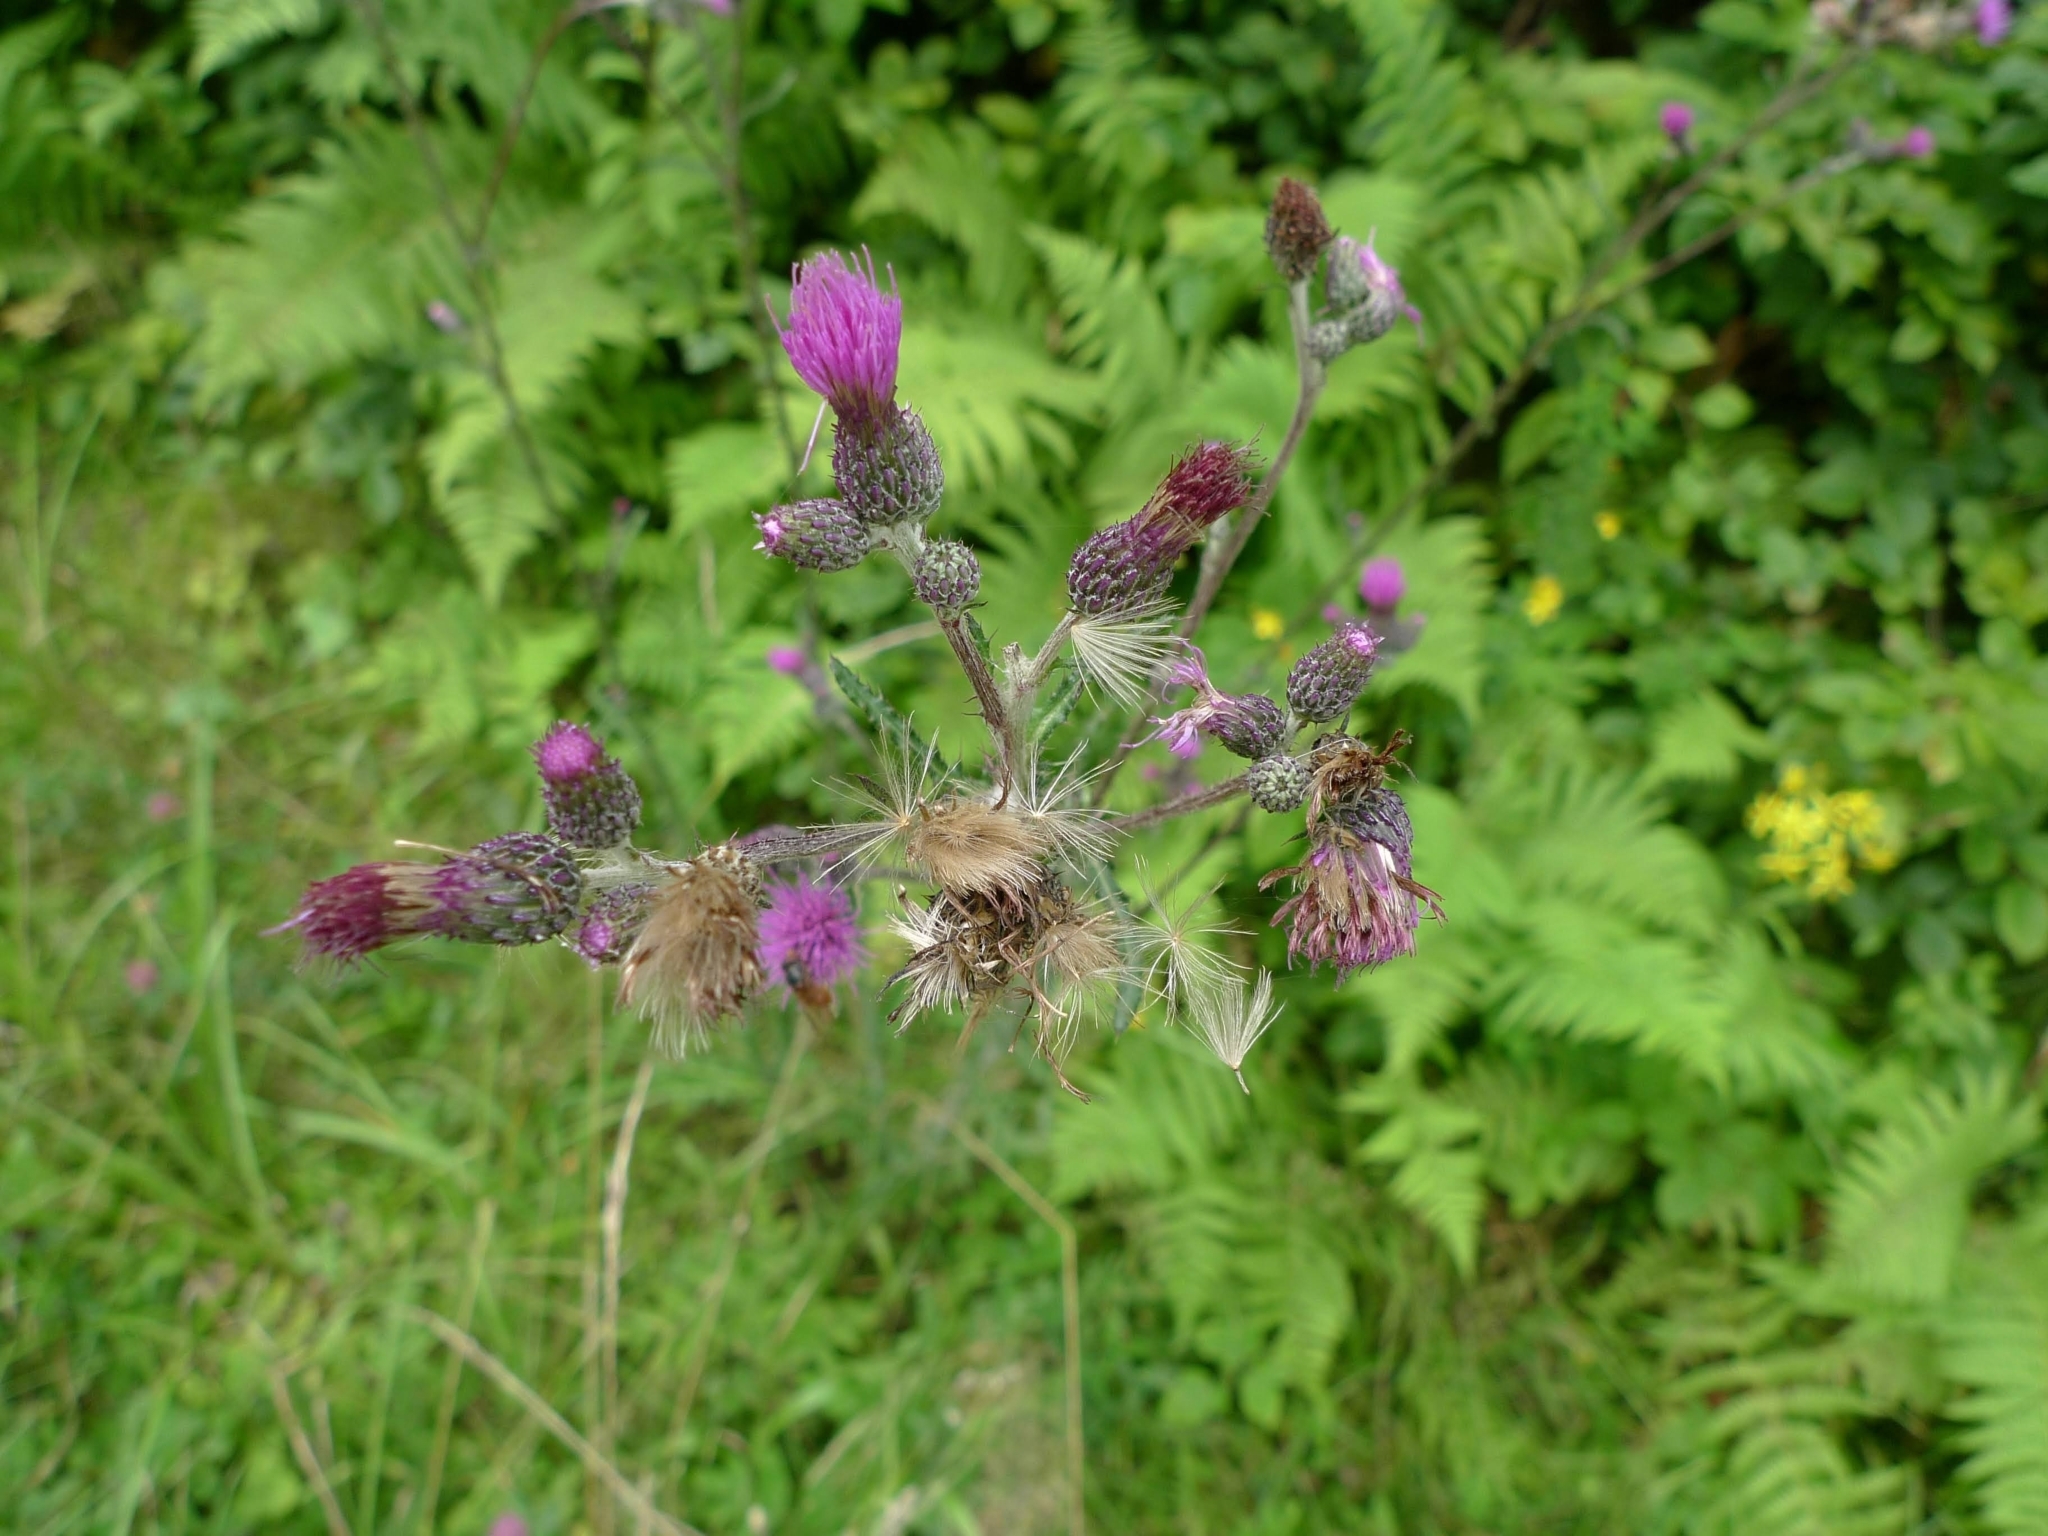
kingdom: Plantae
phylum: Tracheophyta
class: Magnoliopsida
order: Asterales
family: Asteraceae
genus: Cirsium
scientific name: Cirsium palustre
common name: Marsh thistle
